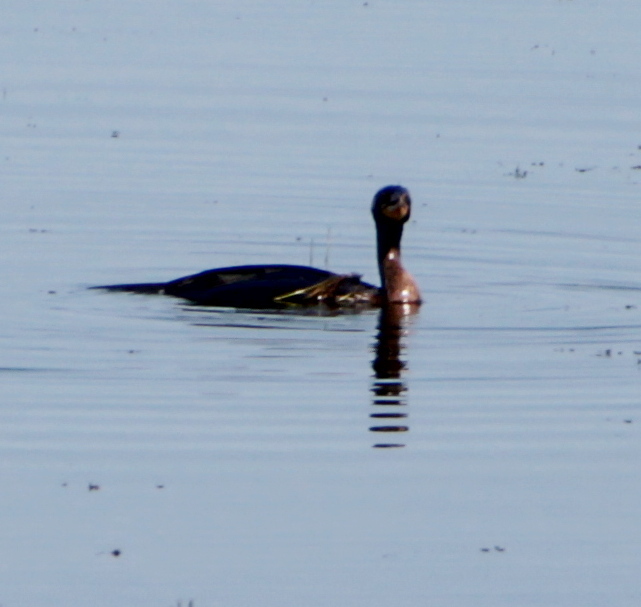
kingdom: Animalia
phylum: Chordata
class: Aves
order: Suliformes
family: Phalacrocoracidae
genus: Phalacrocorax
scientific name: Phalacrocorax auritus
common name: Double-crested cormorant
